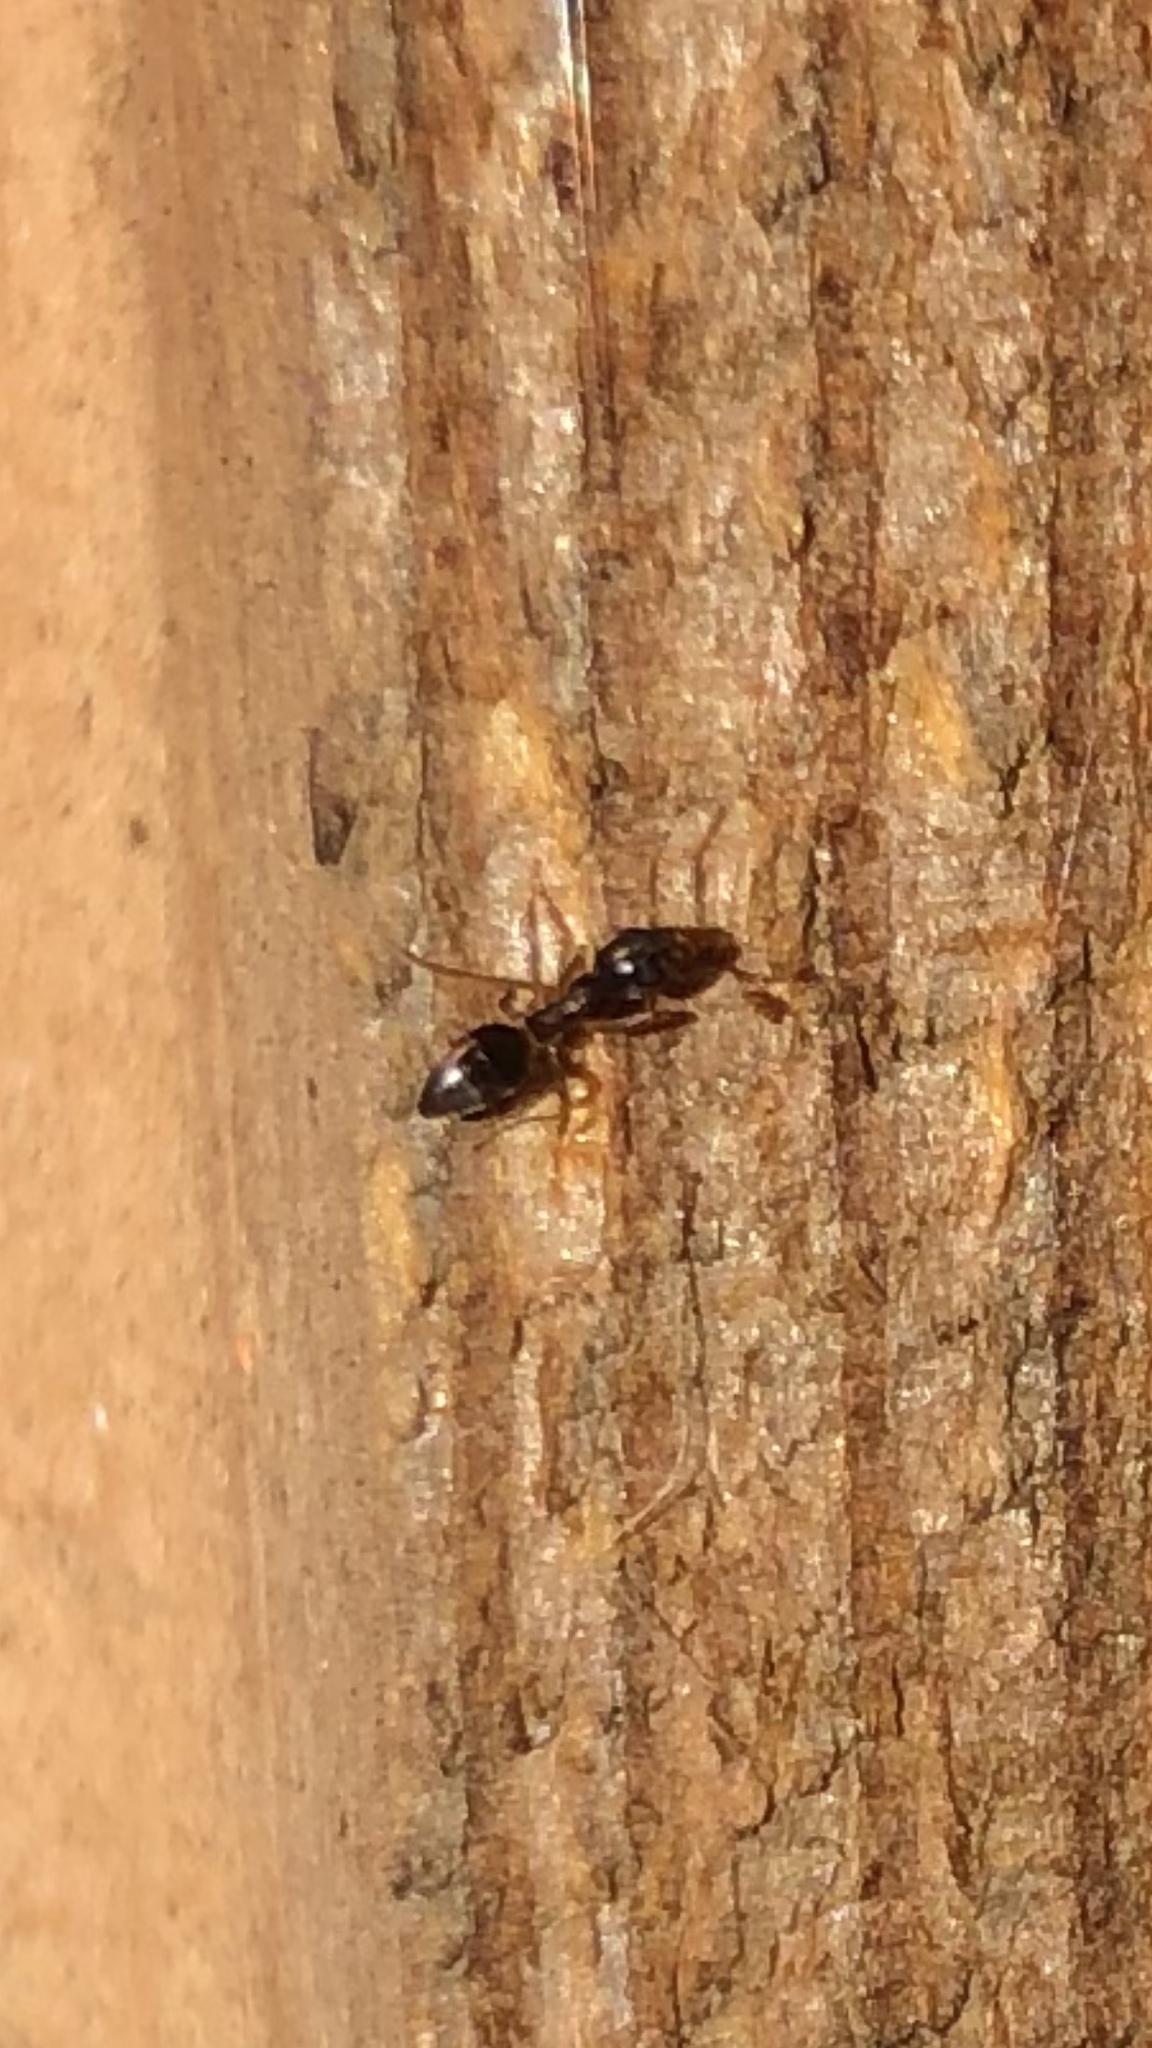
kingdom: Animalia
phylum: Arthropoda
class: Insecta
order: Hymenoptera
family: Formicidae
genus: Tapinoma
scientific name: Tapinoma sessile
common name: Odorous house ant
